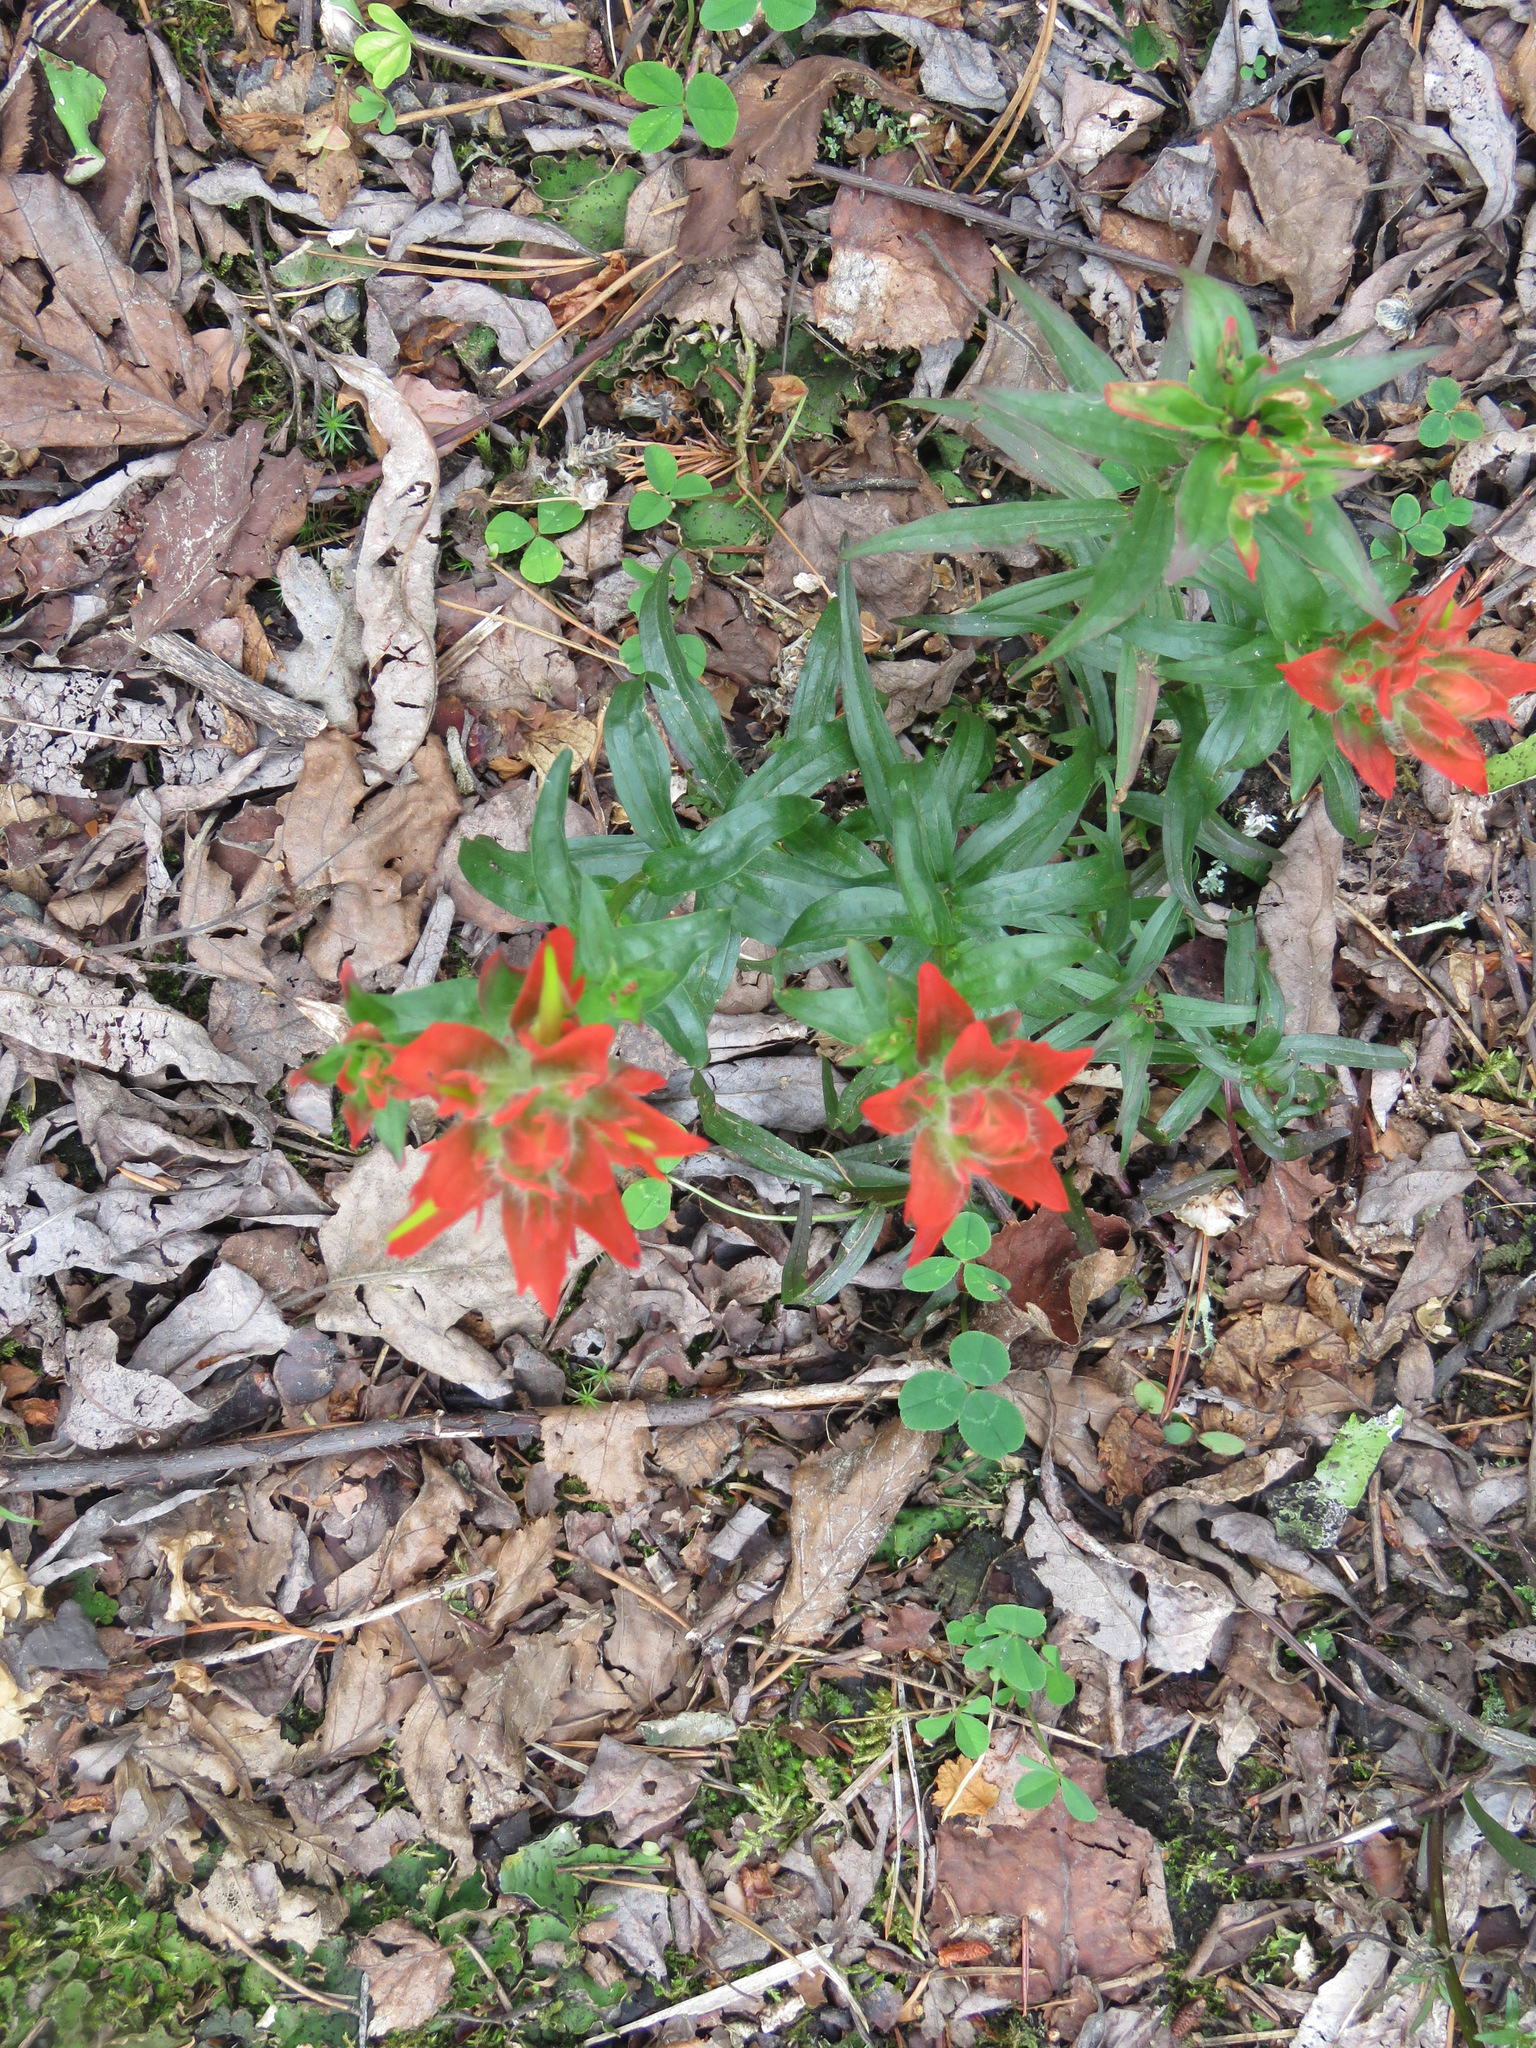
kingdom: Plantae
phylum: Tracheophyta
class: Magnoliopsida
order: Lamiales
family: Orobanchaceae
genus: Castilleja
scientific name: Castilleja miniata
